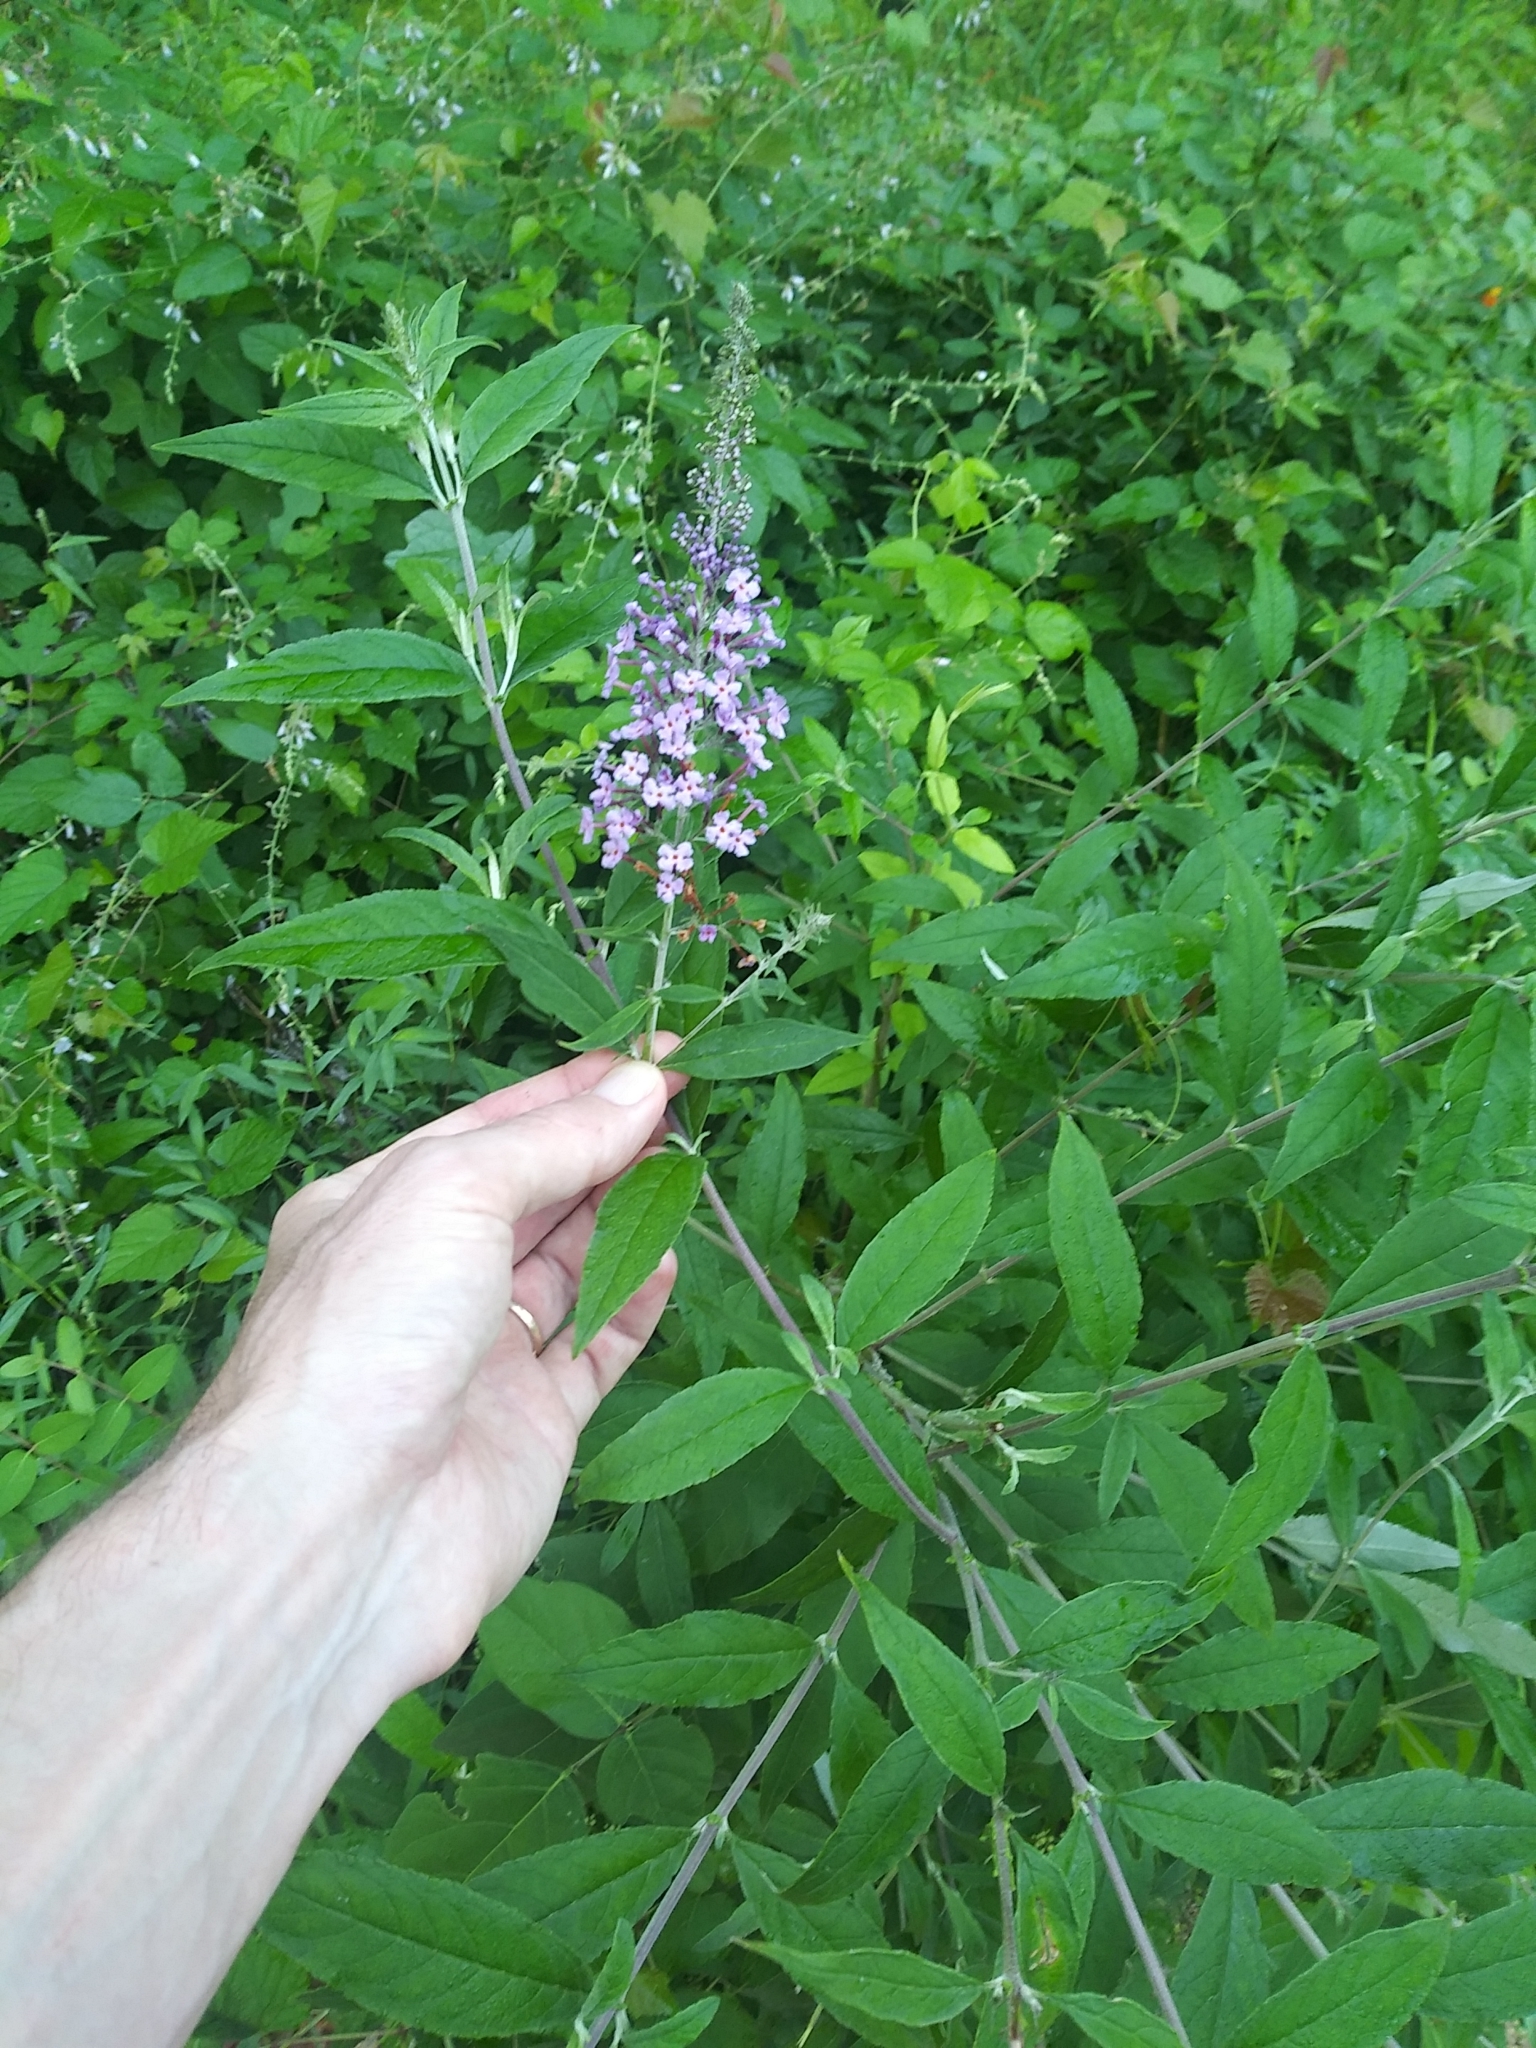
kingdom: Plantae
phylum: Tracheophyta
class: Magnoliopsida
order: Lamiales
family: Scrophulariaceae
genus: Buddleja
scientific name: Buddleja davidii
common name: Butterfly-bush
